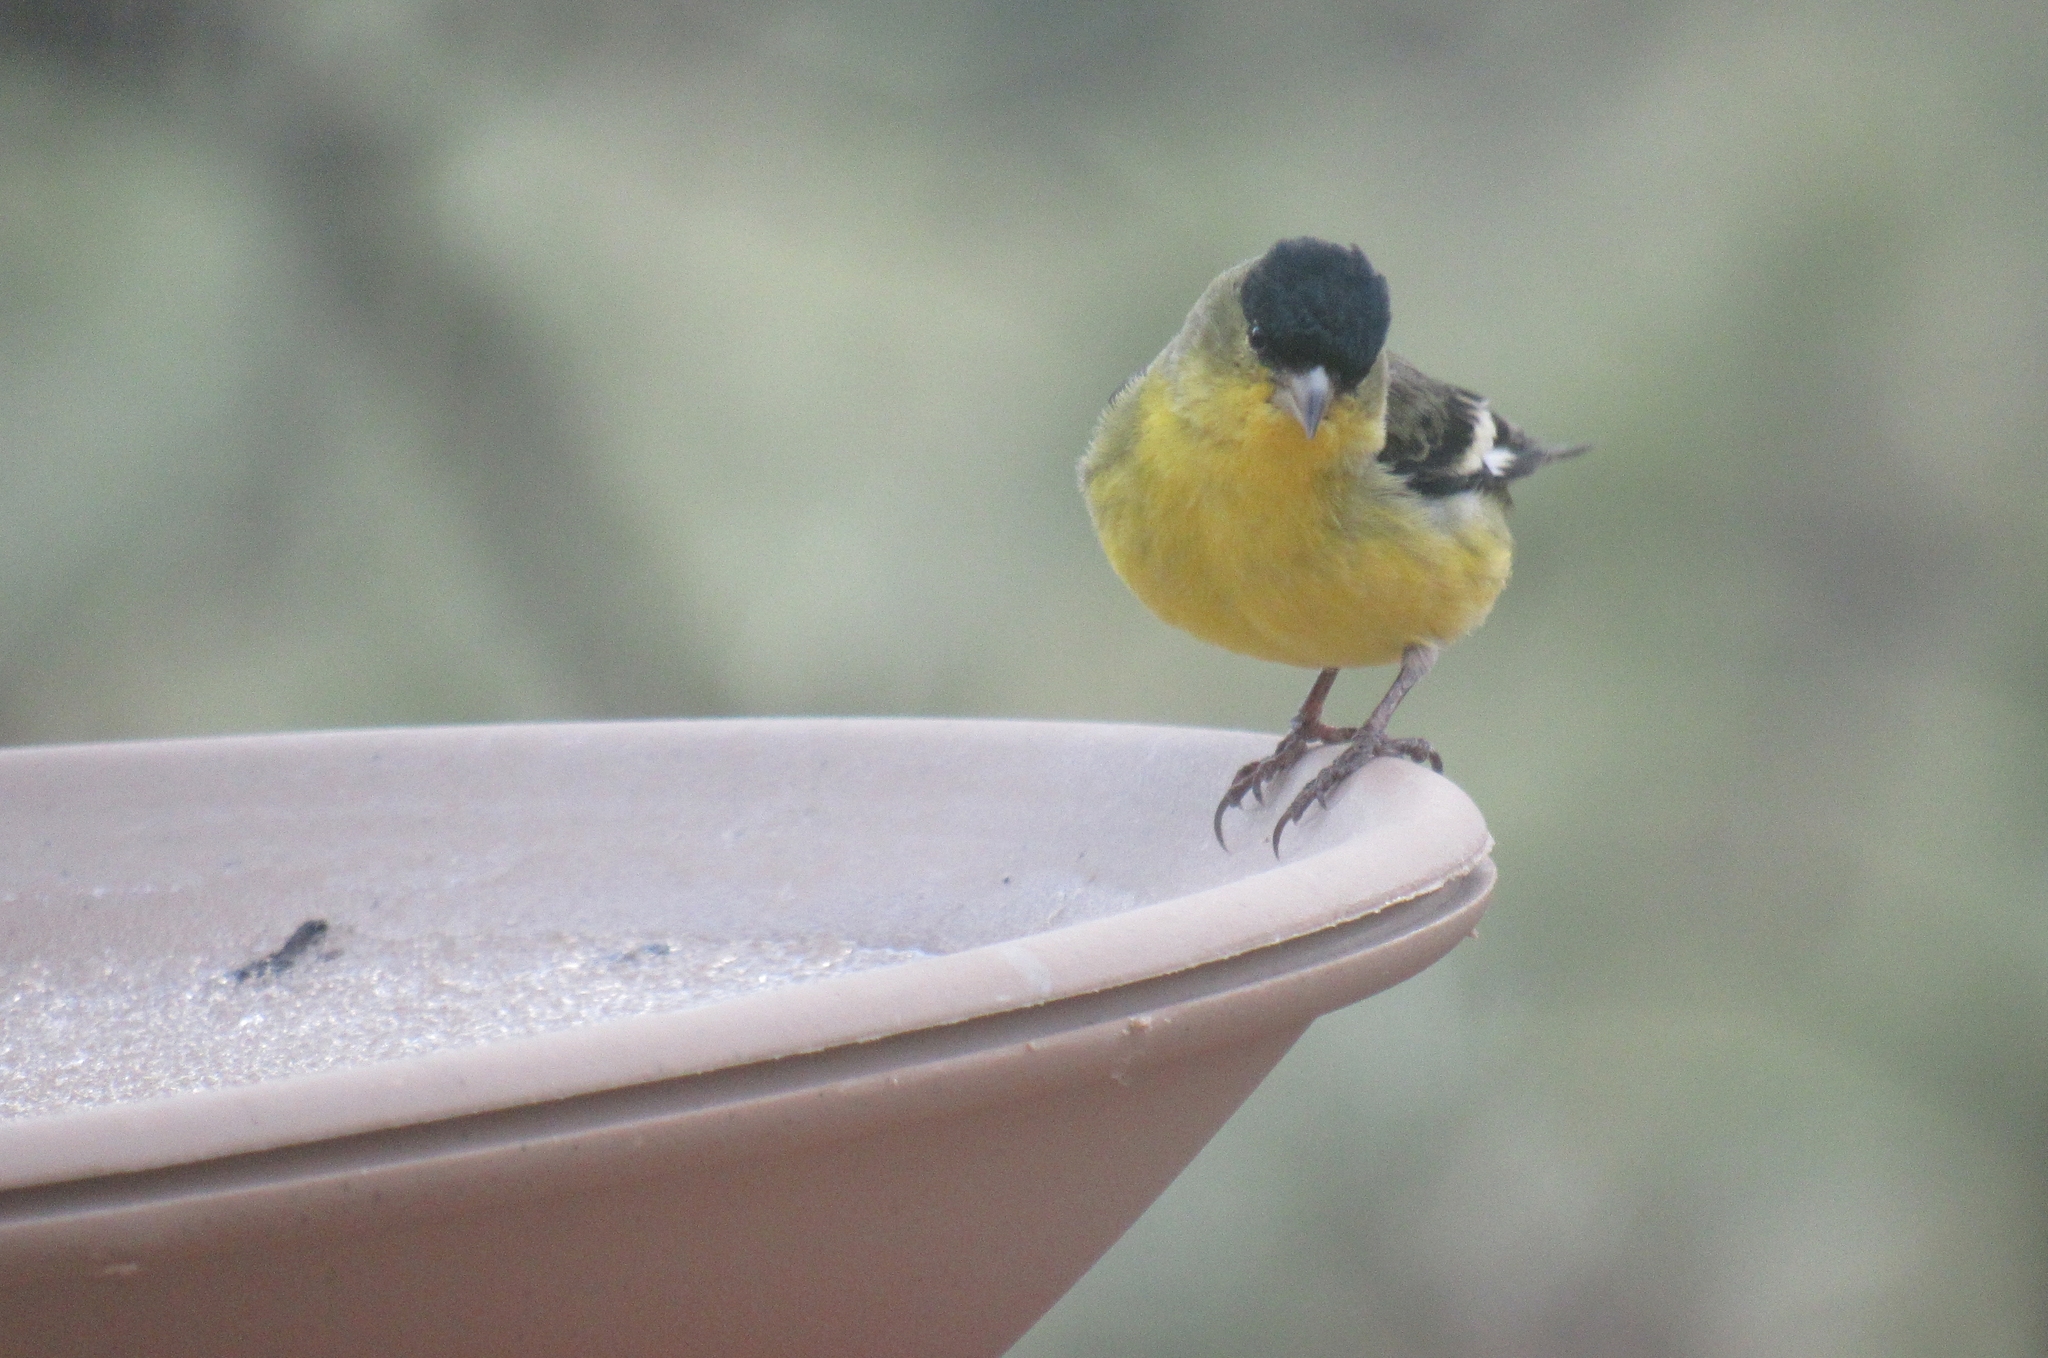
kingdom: Animalia
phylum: Chordata
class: Aves
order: Passeriformes
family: Fringillidae
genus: Spinus
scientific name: Spinus psaltria
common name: Lesser goldfinch
